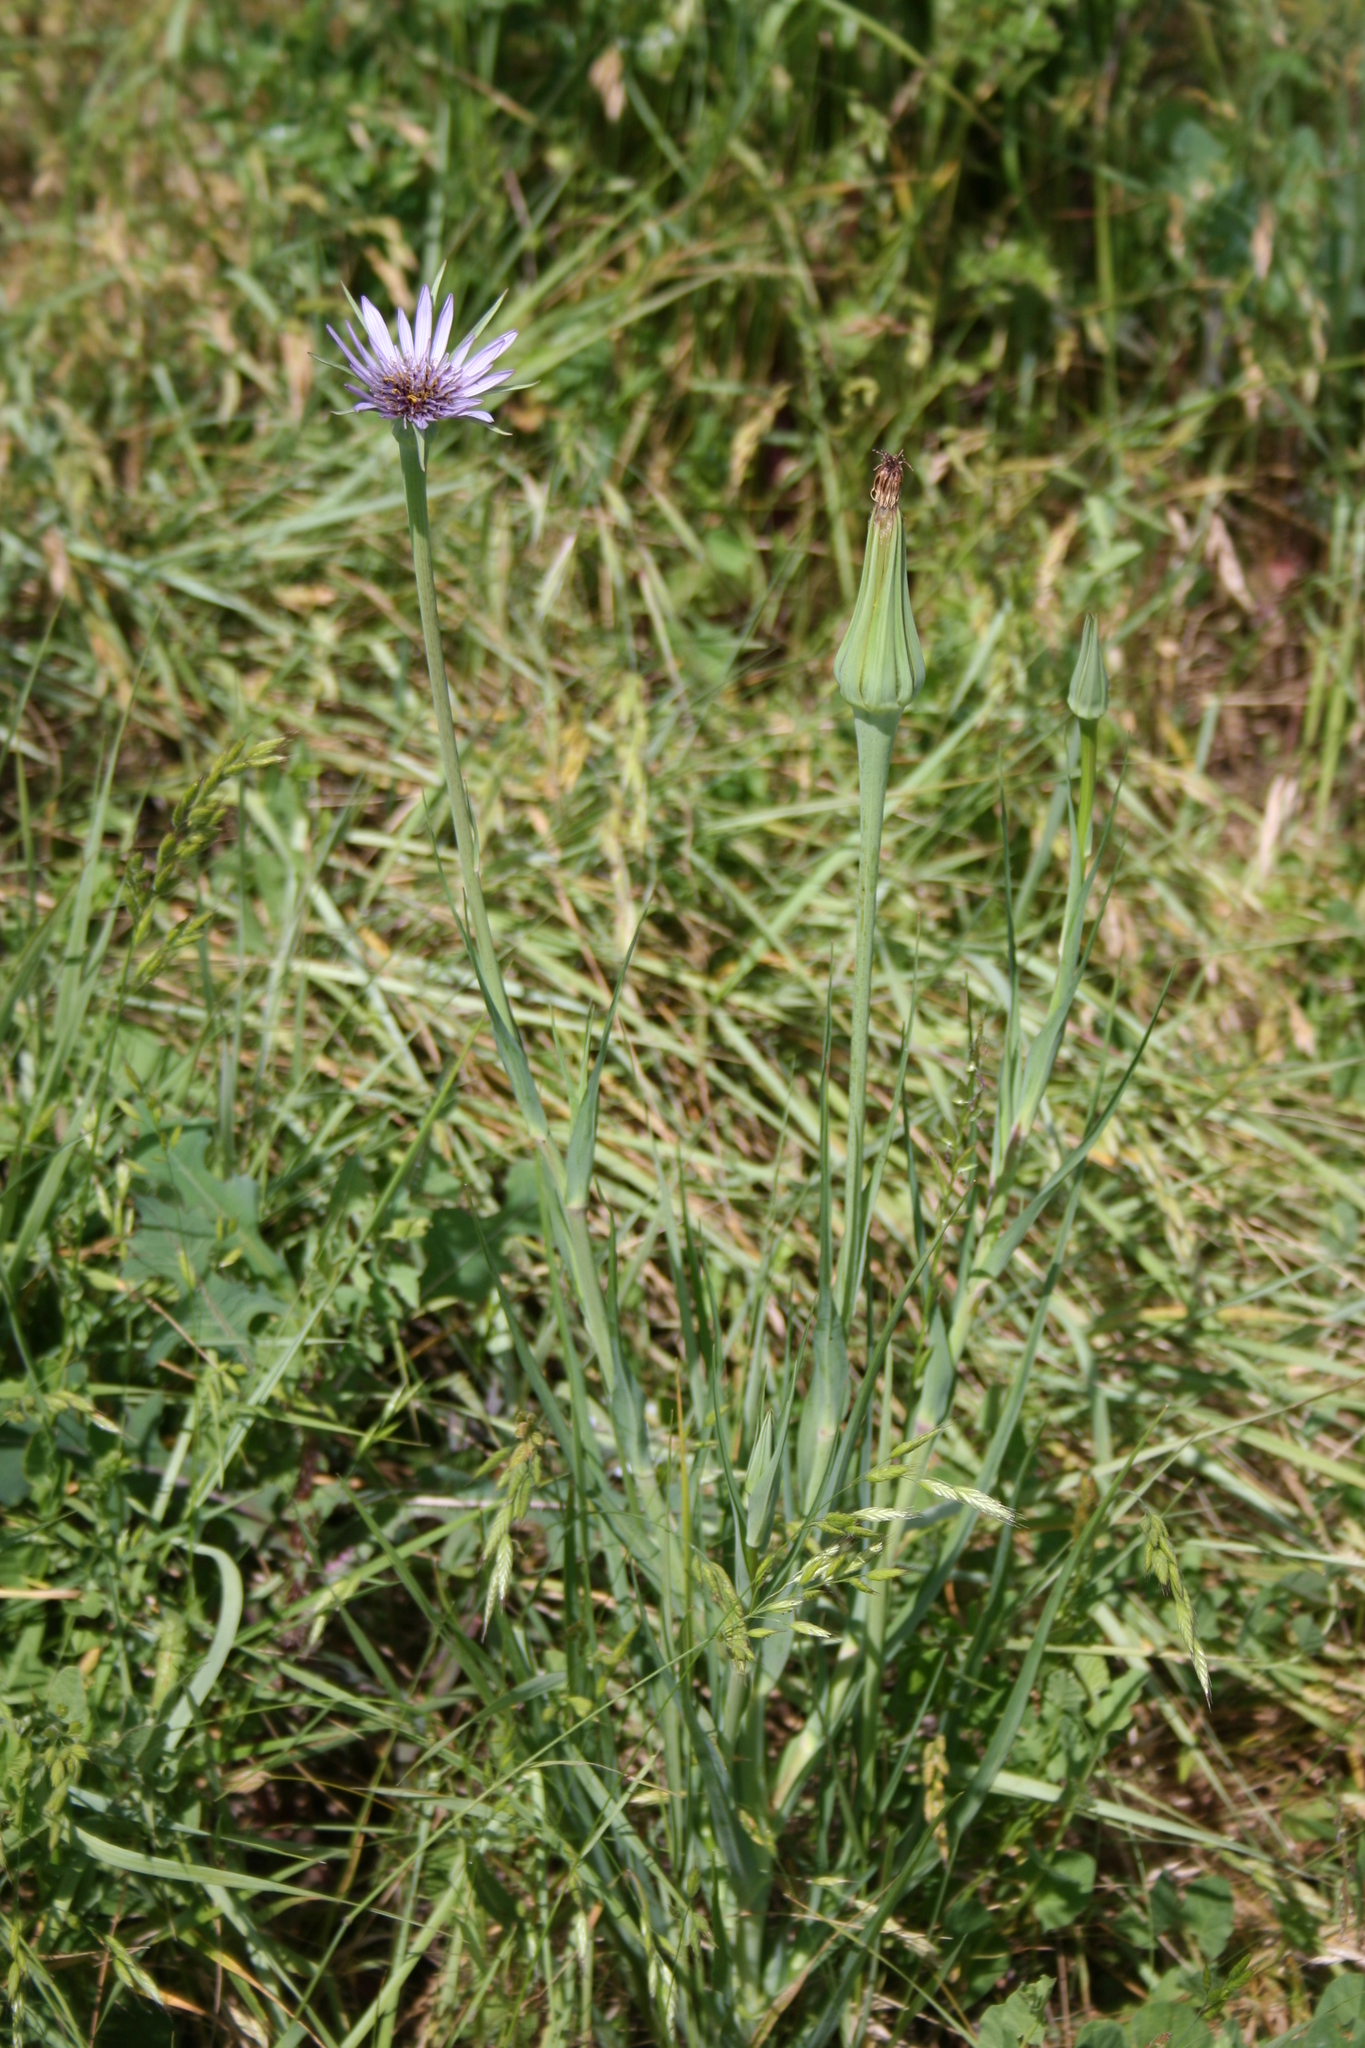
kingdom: Plantae
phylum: Tracheophyta
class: Magnoliopsida
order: Asterales
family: Asteraceae
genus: Tragopogon
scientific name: Tragopogon porrifolius
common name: Salsify
